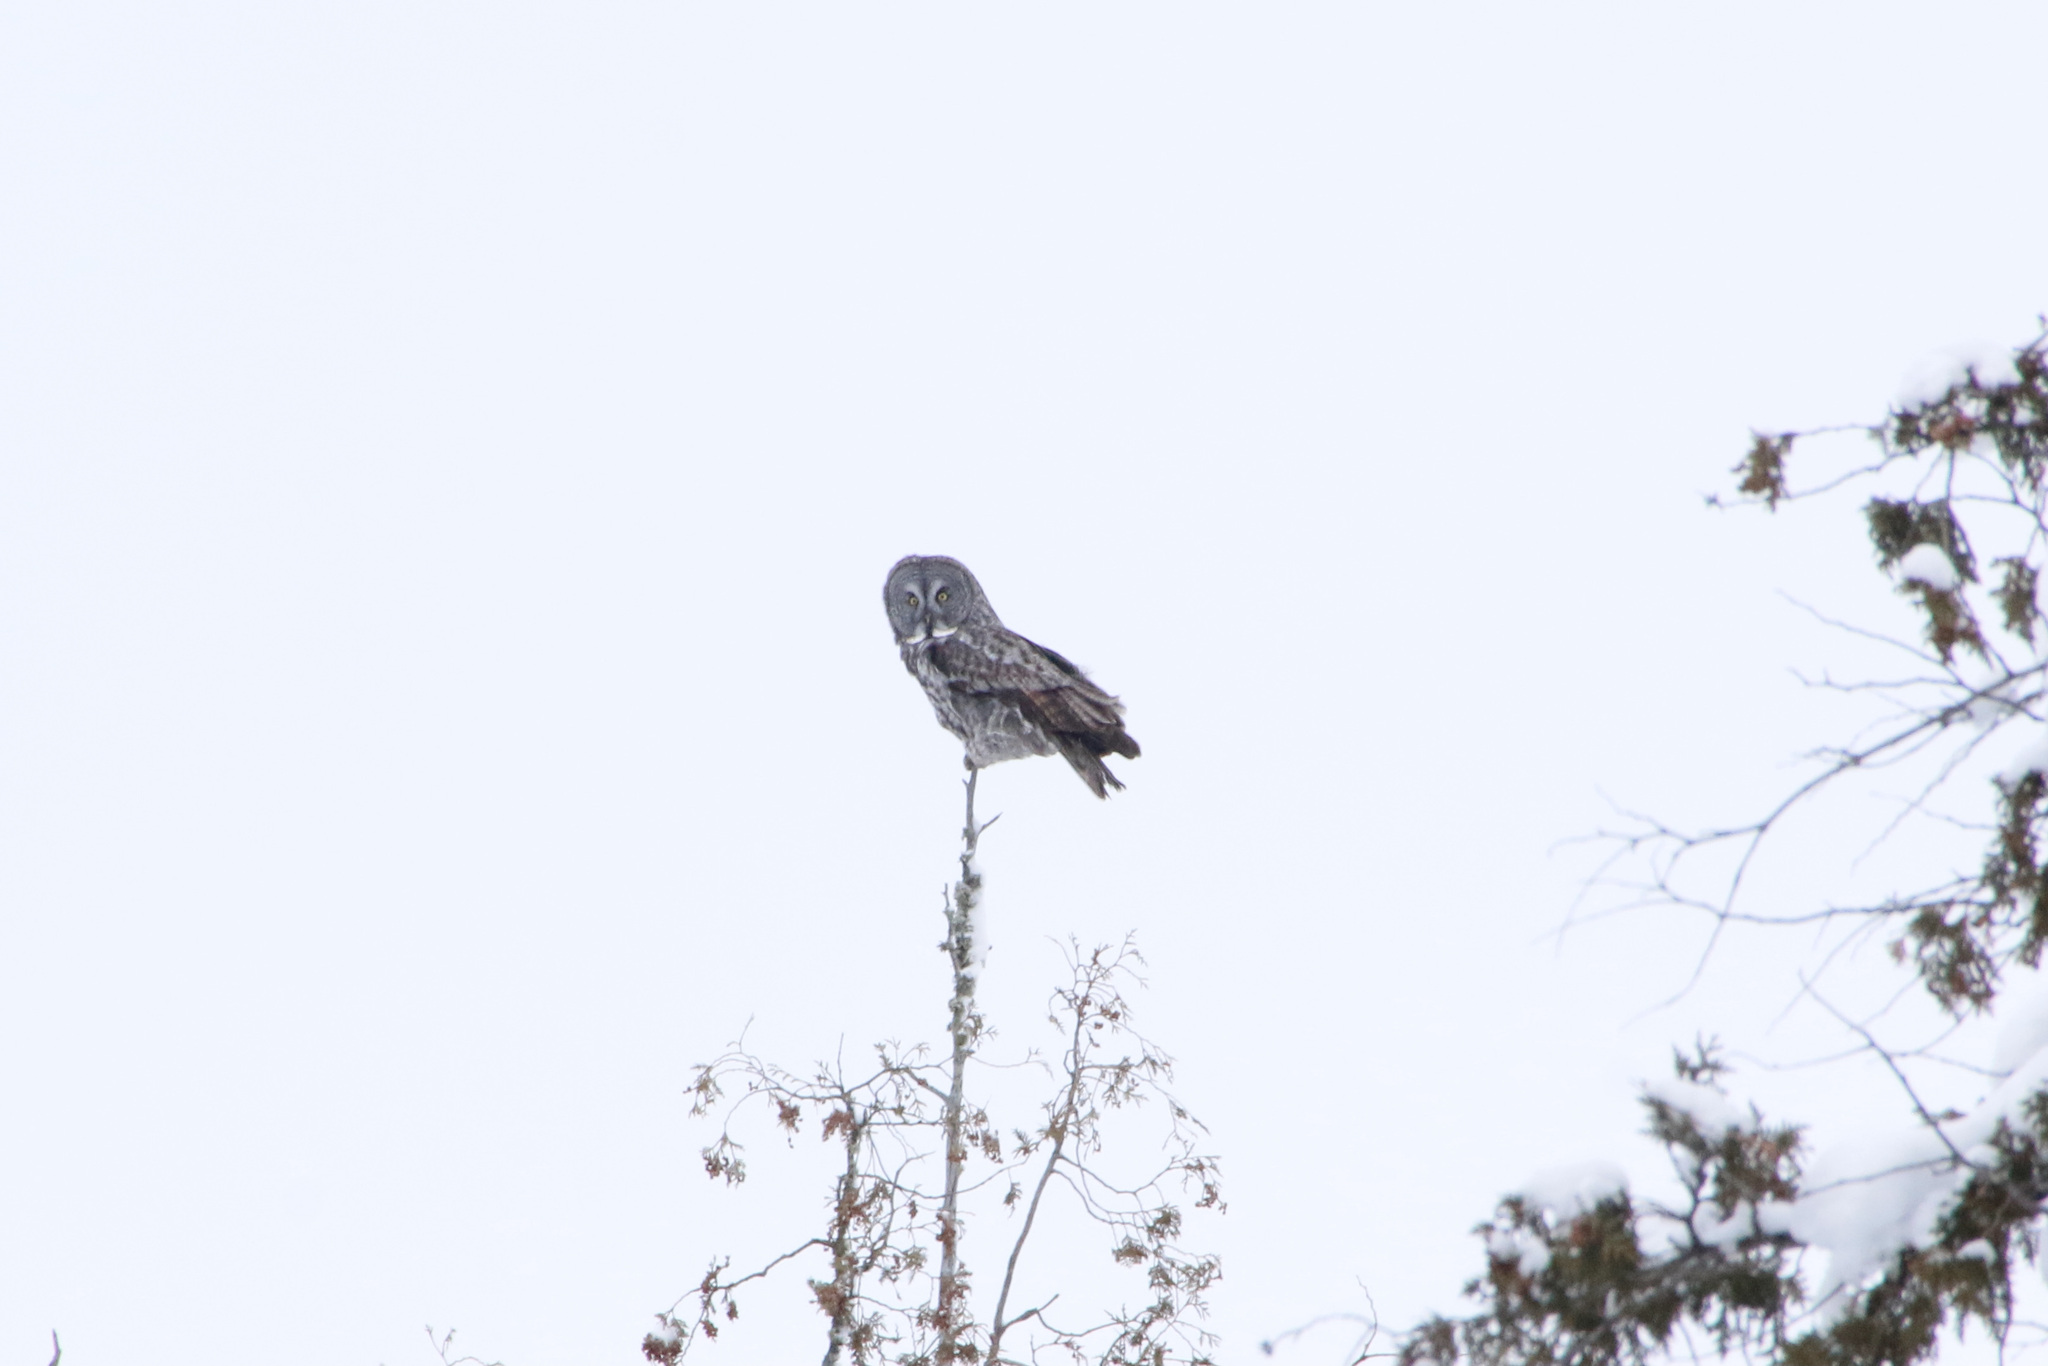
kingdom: Animalia
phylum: Chordata
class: Aves
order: Strigiformes
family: Strigidae
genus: Strix
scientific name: Strix nebulosa
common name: Great grey owl
